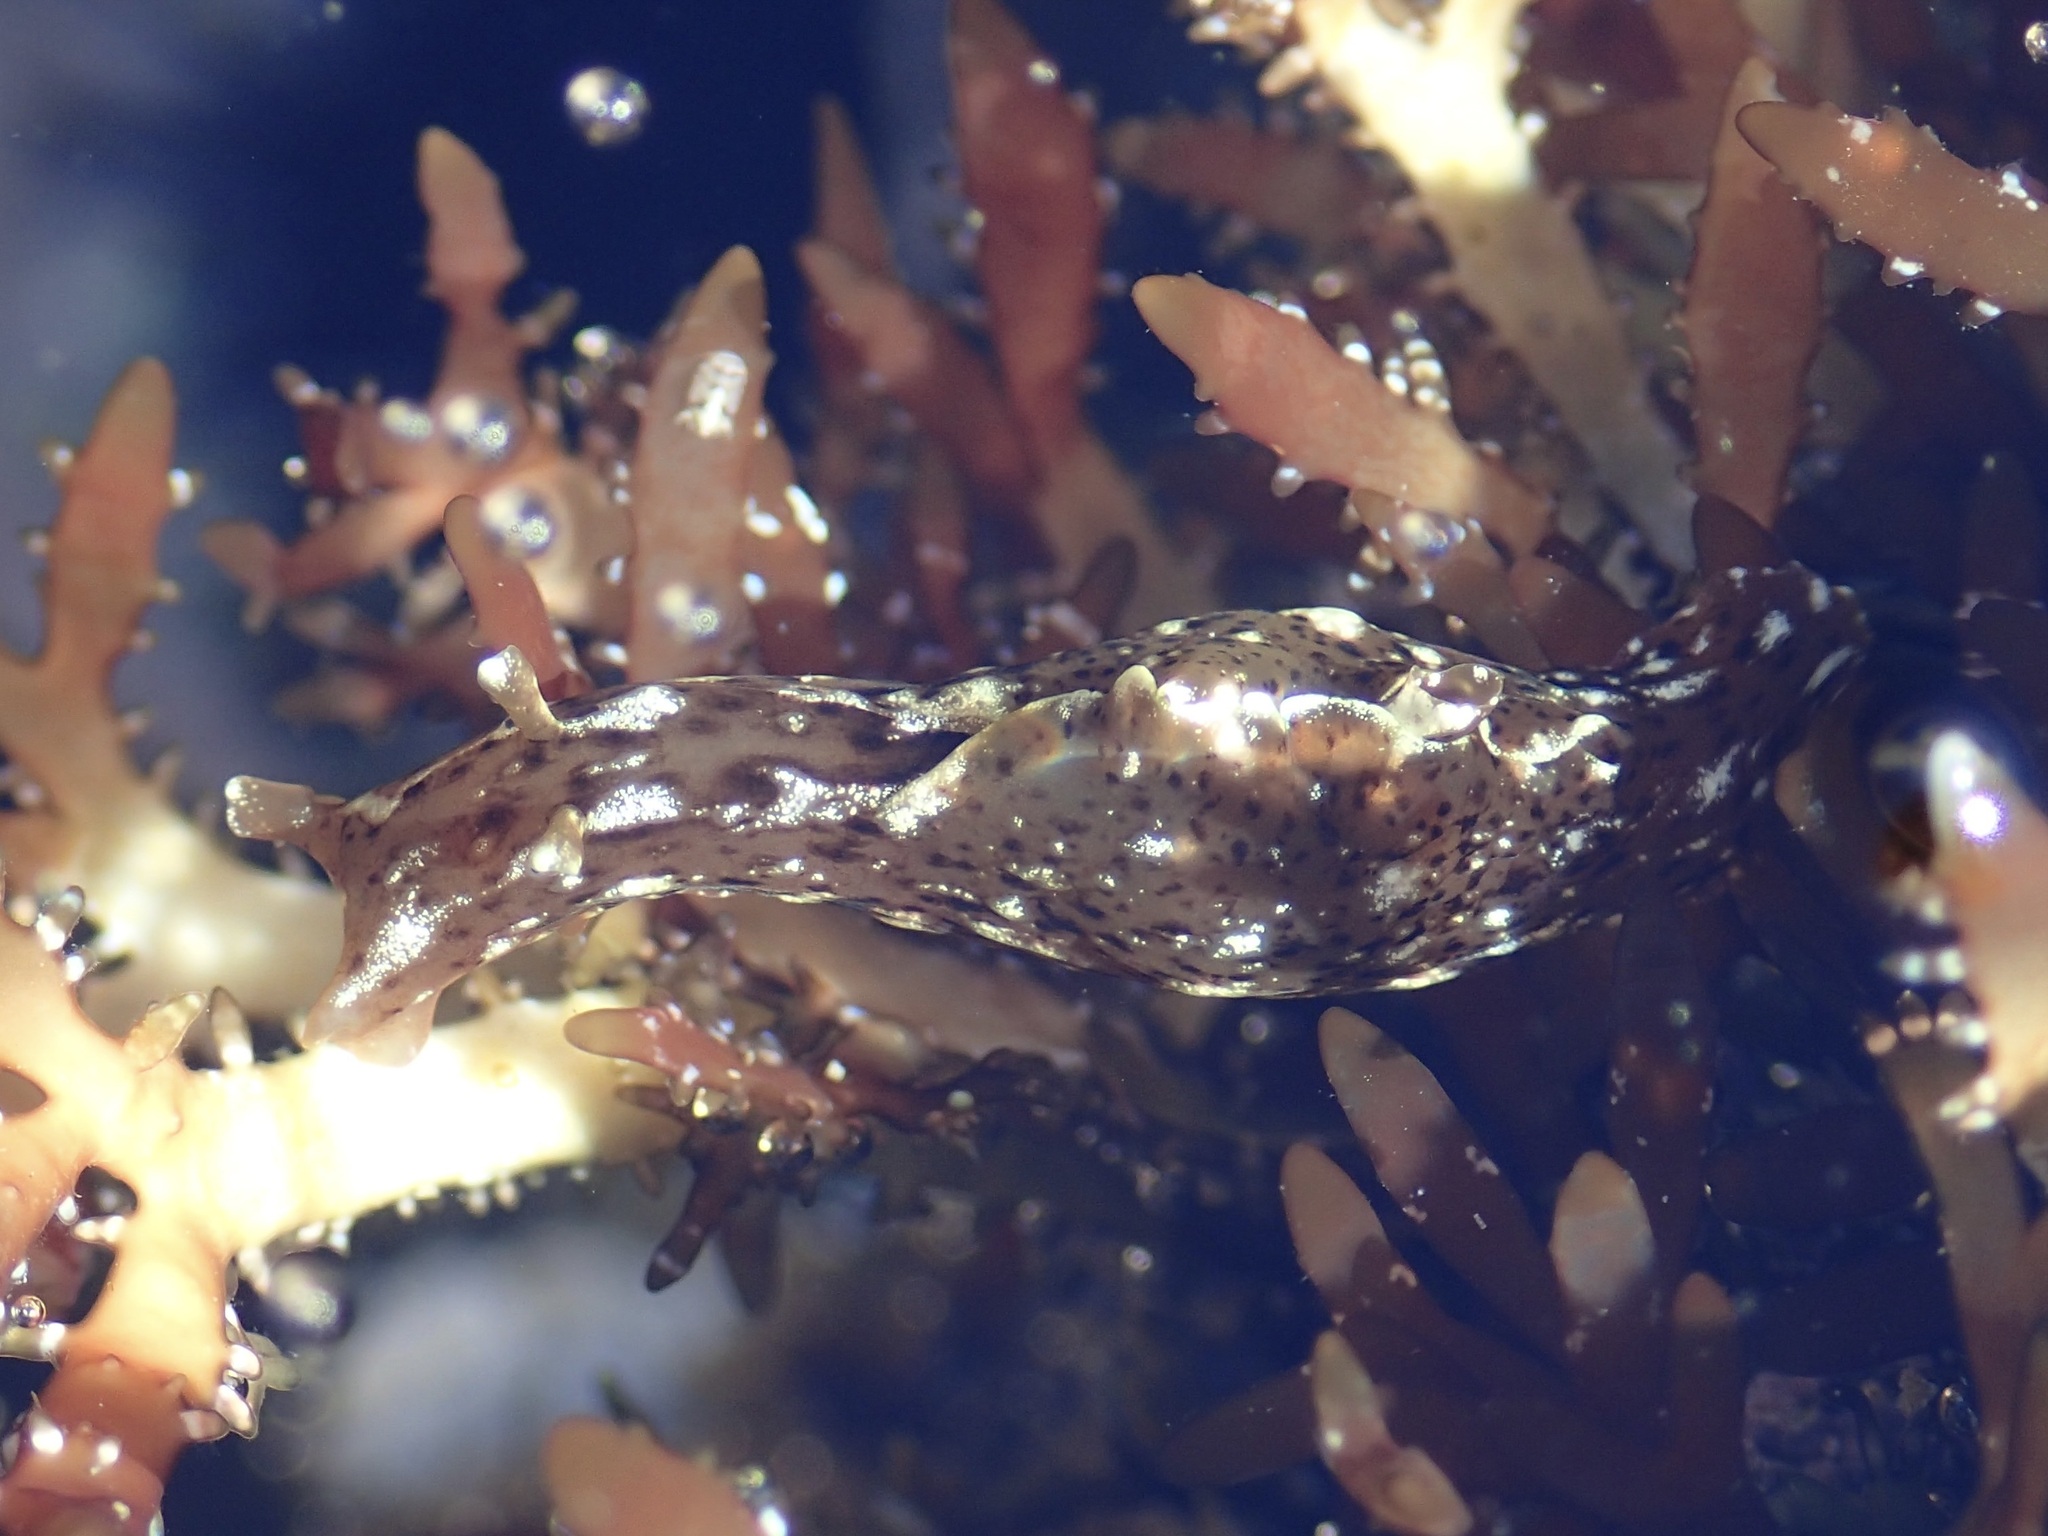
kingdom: Animalia
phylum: Mollusca
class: Gastropoda
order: Aplysiida
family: Aplysiidae
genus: Aplysia
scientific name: Aplysia californica
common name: California seahare
